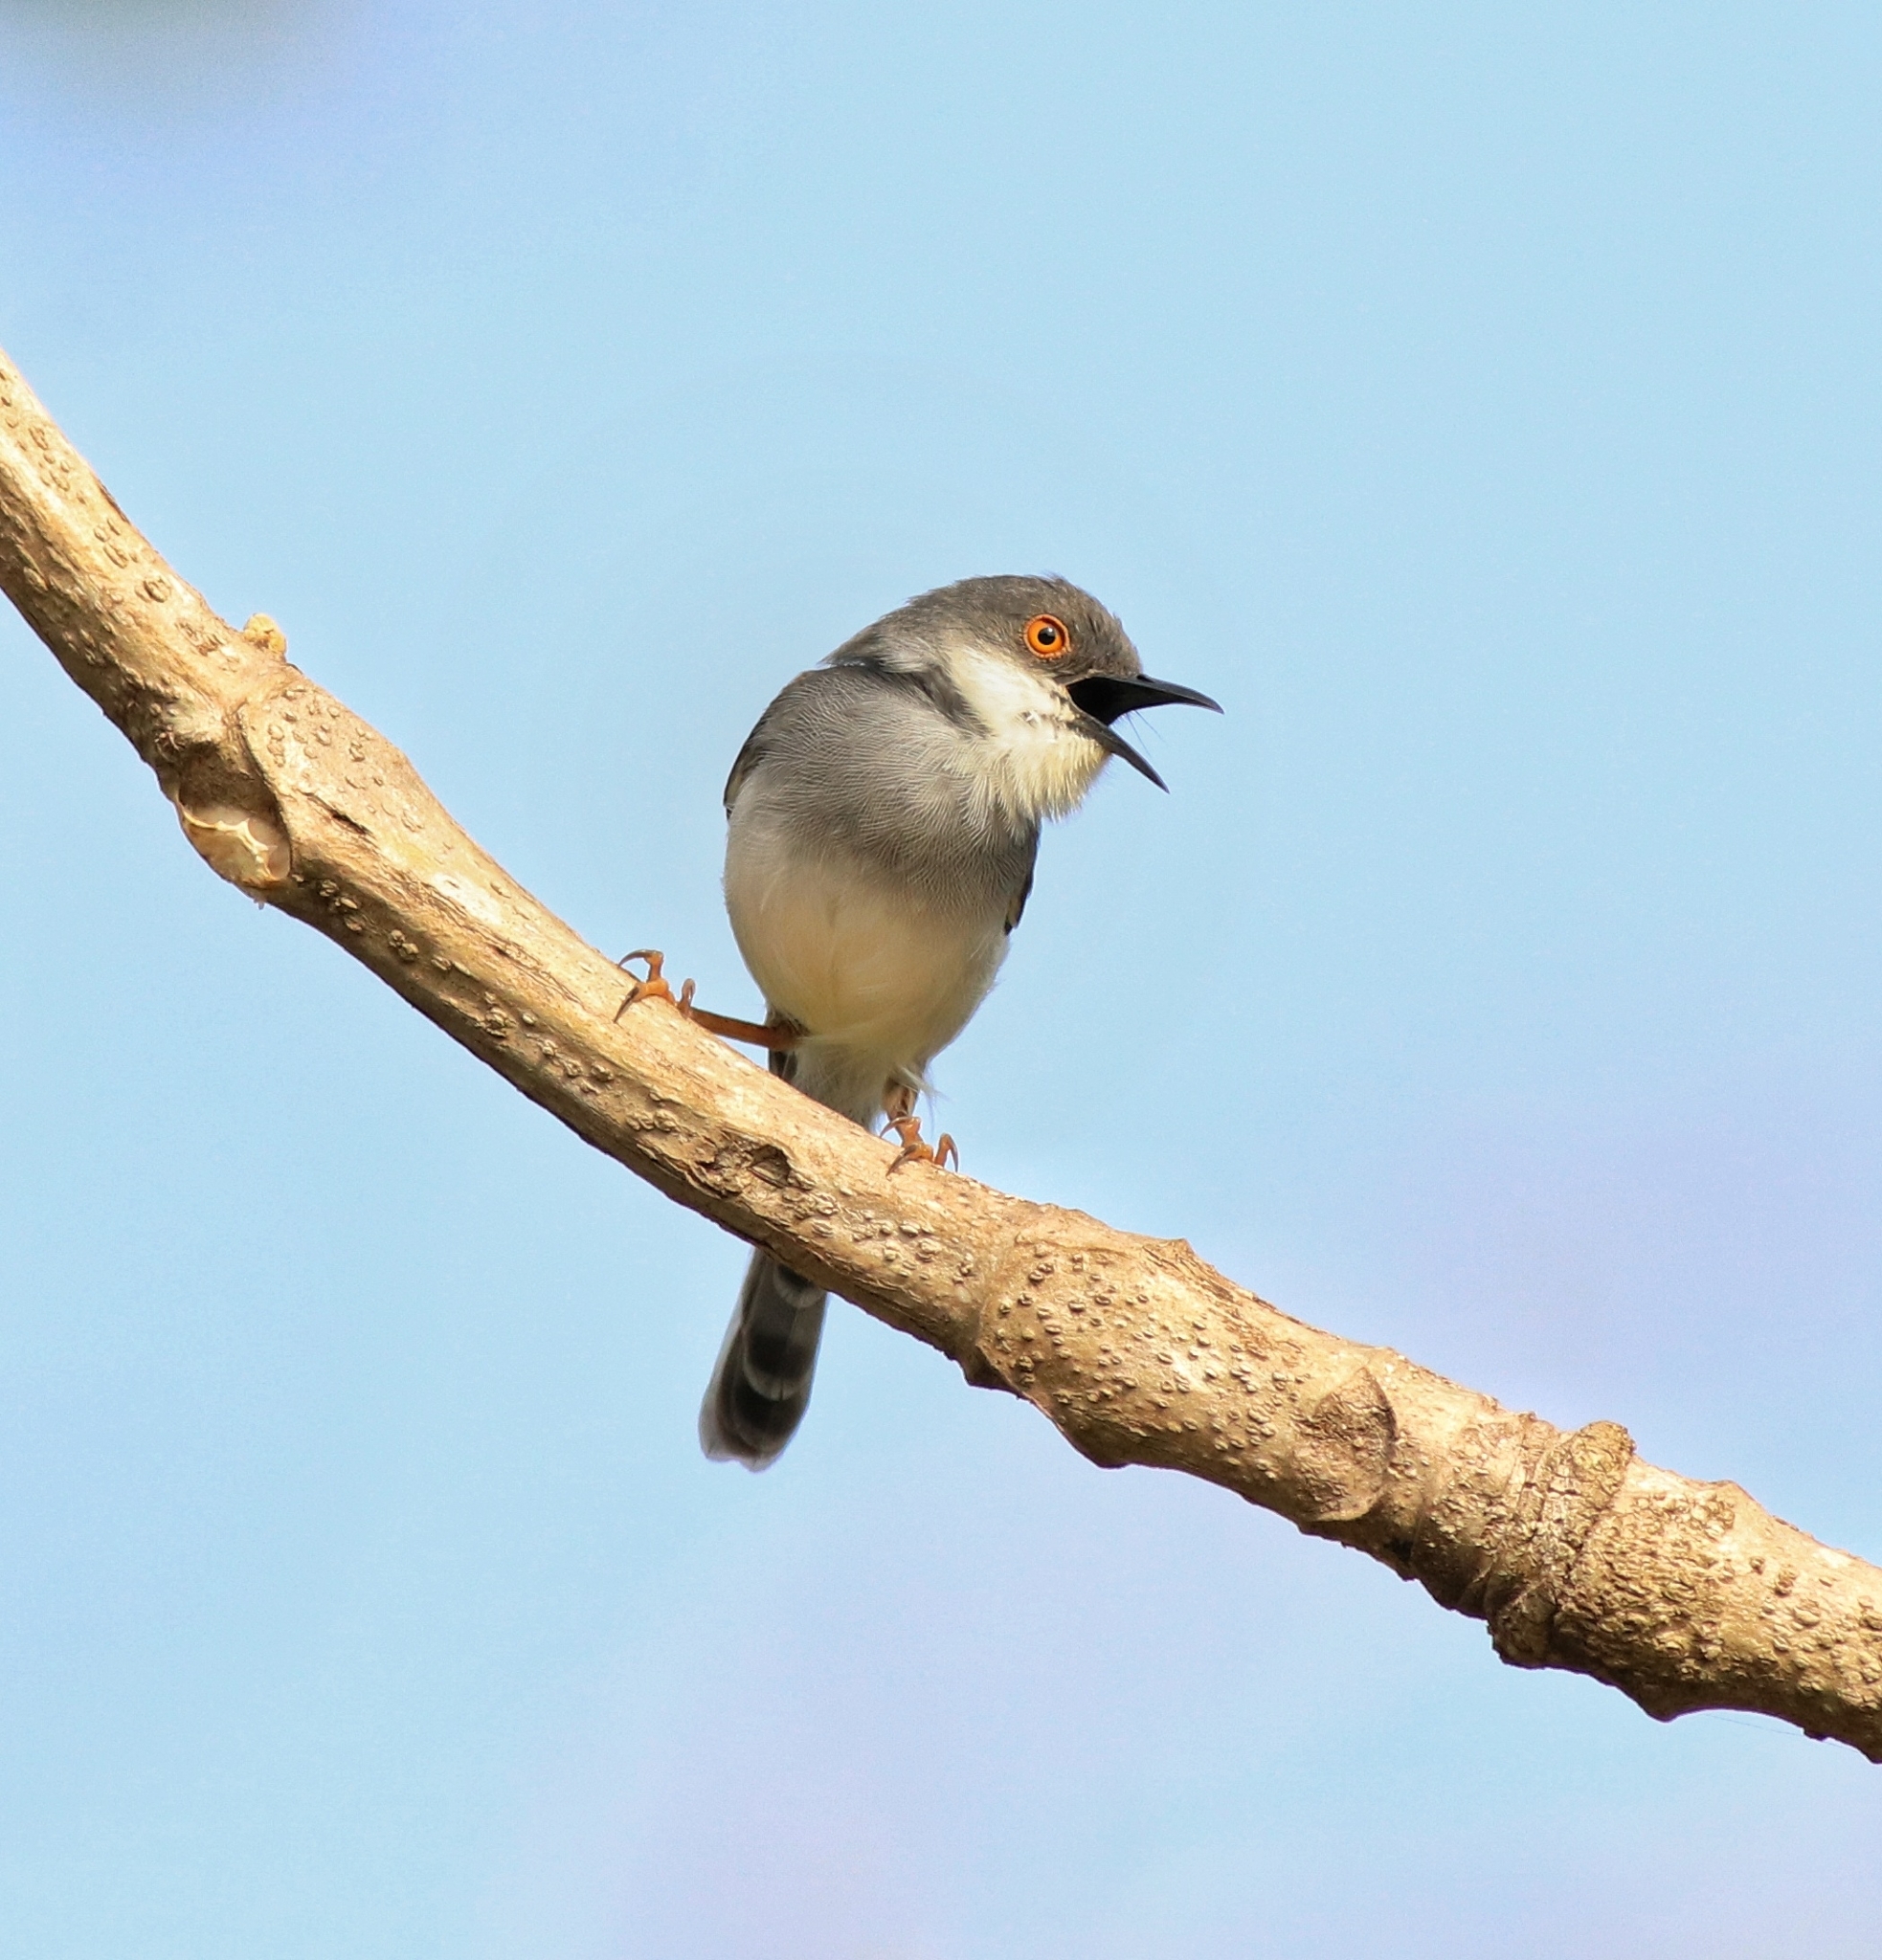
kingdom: Animalia
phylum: Chordata
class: Aves
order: Passeriformes
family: Cisticolidae
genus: Prinia
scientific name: Prinia hodgsonii
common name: Grey-breasted prinia
